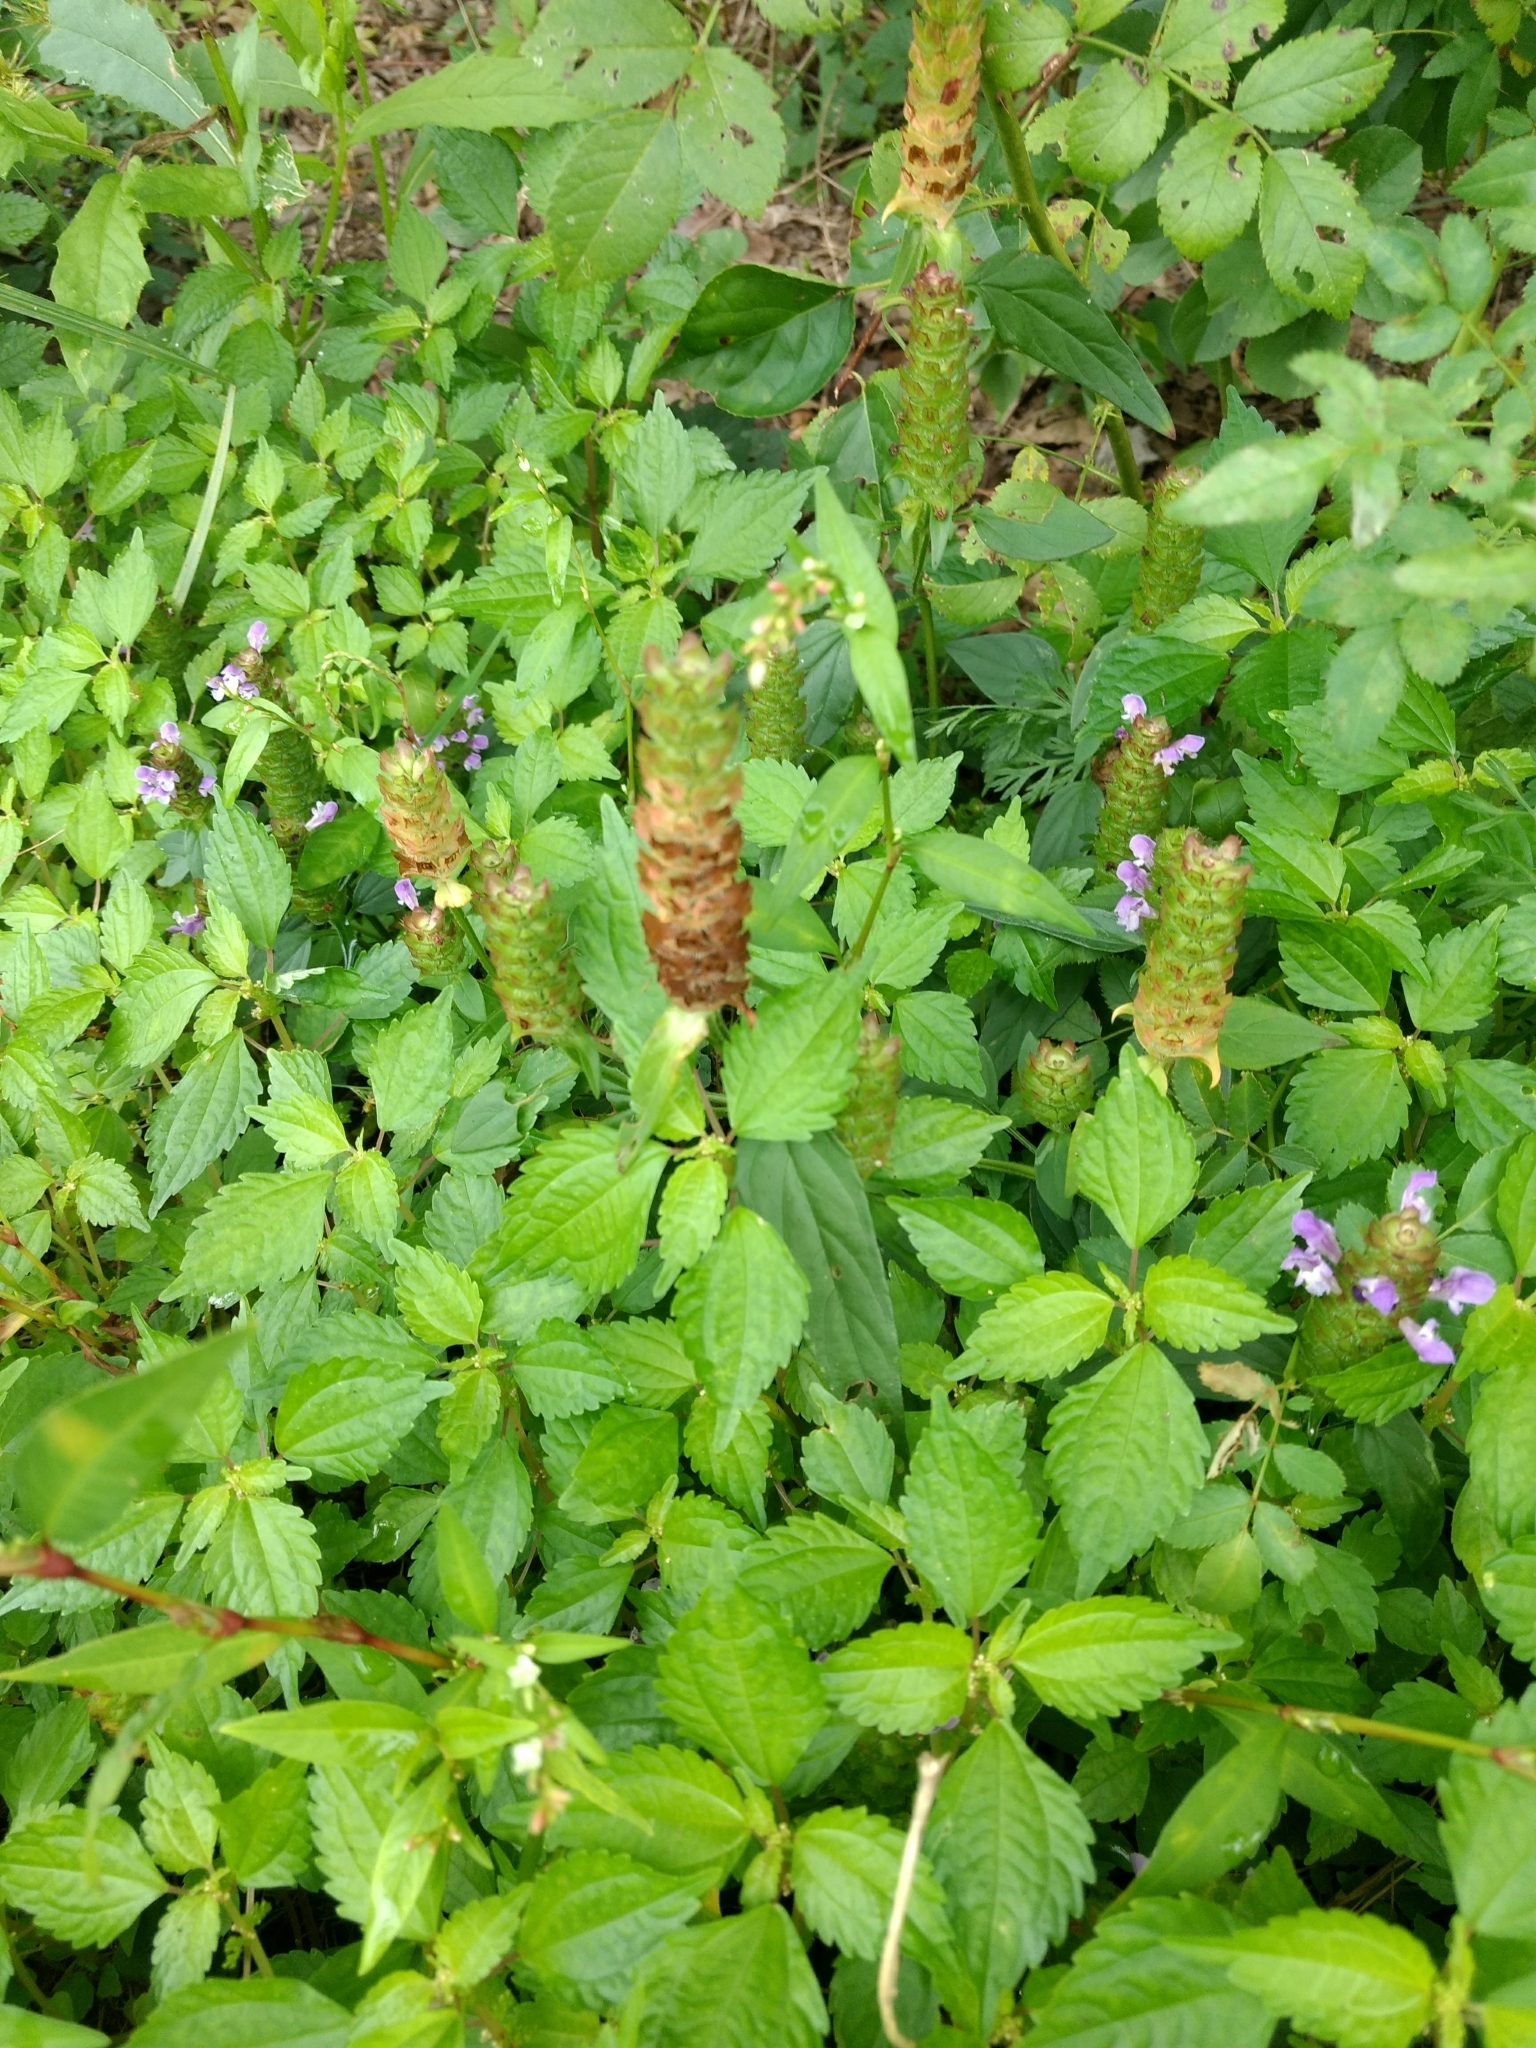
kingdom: Plantae
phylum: Tracheophyta
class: Magnoliopsida
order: Lamiales
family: Lamiaceae
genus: Prunella
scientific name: Prunella vulgaris
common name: Heal-all
